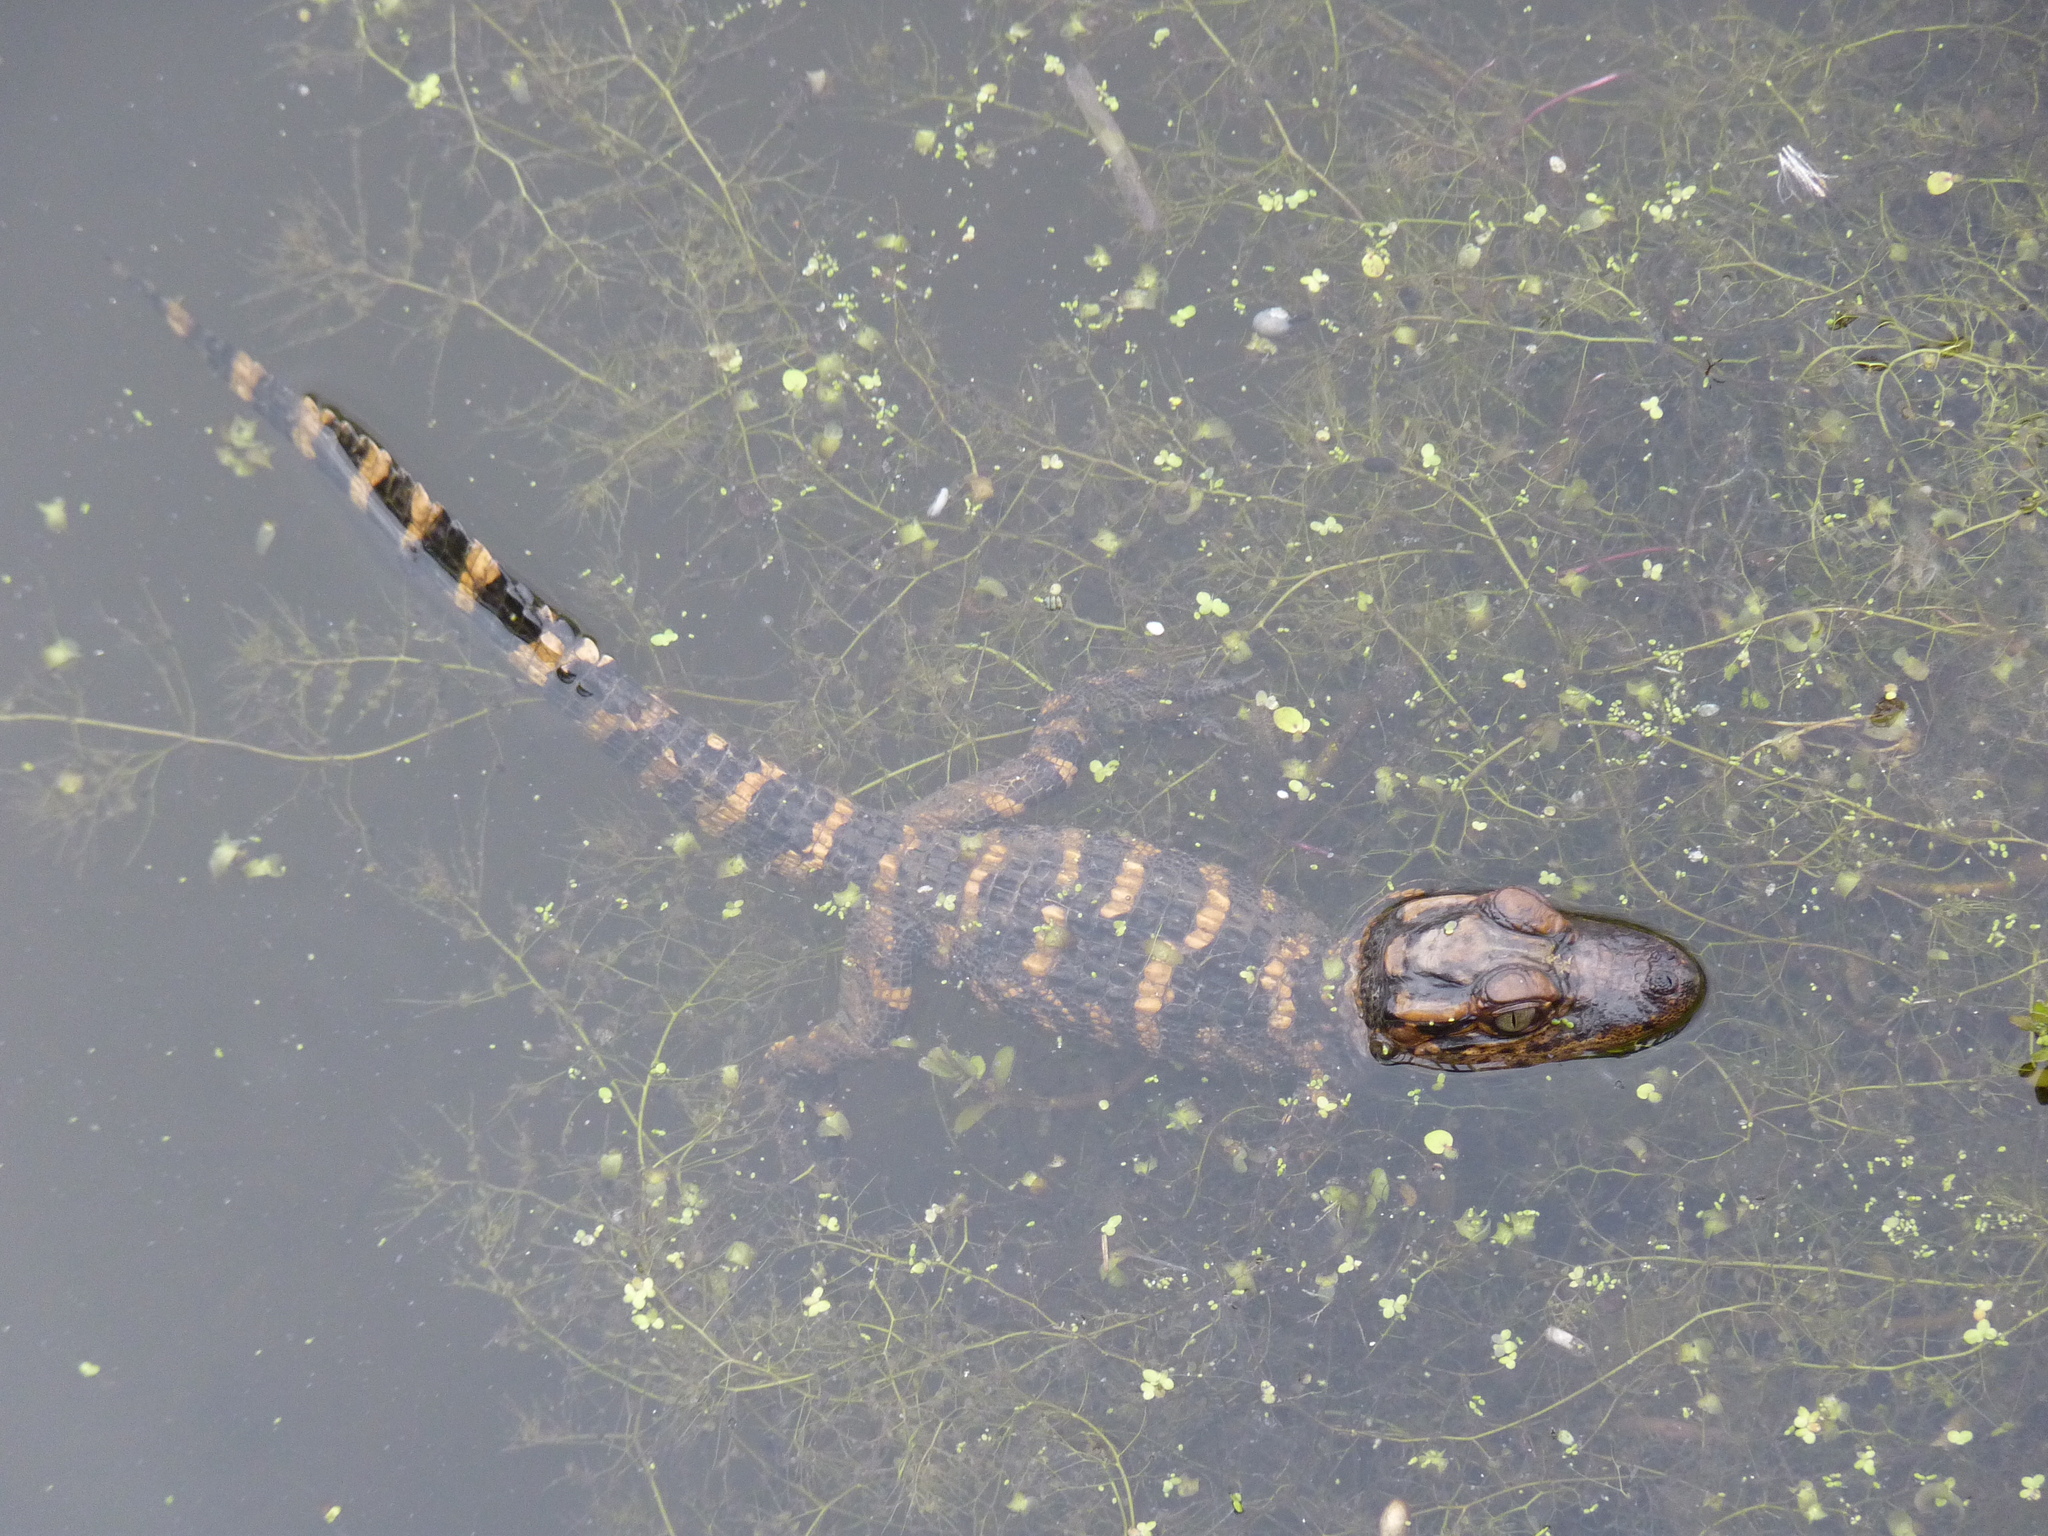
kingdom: Animalia
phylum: Chordata
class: Crocodylia
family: Alligatoridae
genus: Alligator
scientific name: Alligator mississippiensis
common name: American alligator
